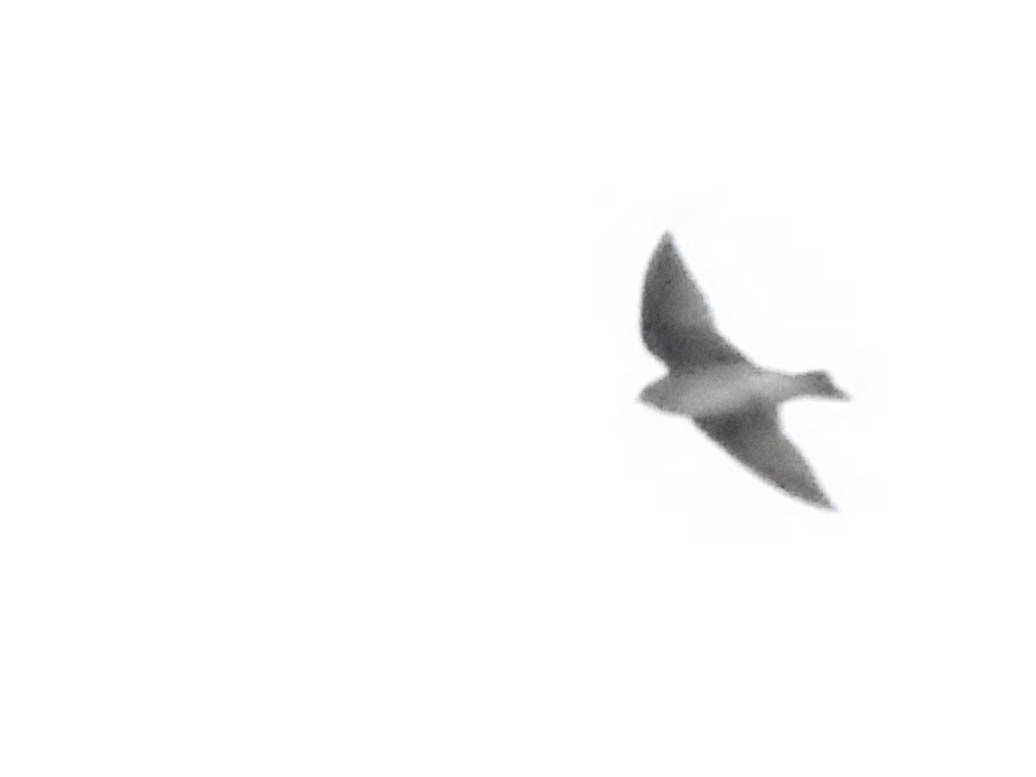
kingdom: Animalia
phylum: Chordata
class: Aves
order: Passeriformes
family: Hirundinidae
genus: Stelgidopteryx
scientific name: Stelgidopteryx serripennis
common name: Northern rough-winged swallow
